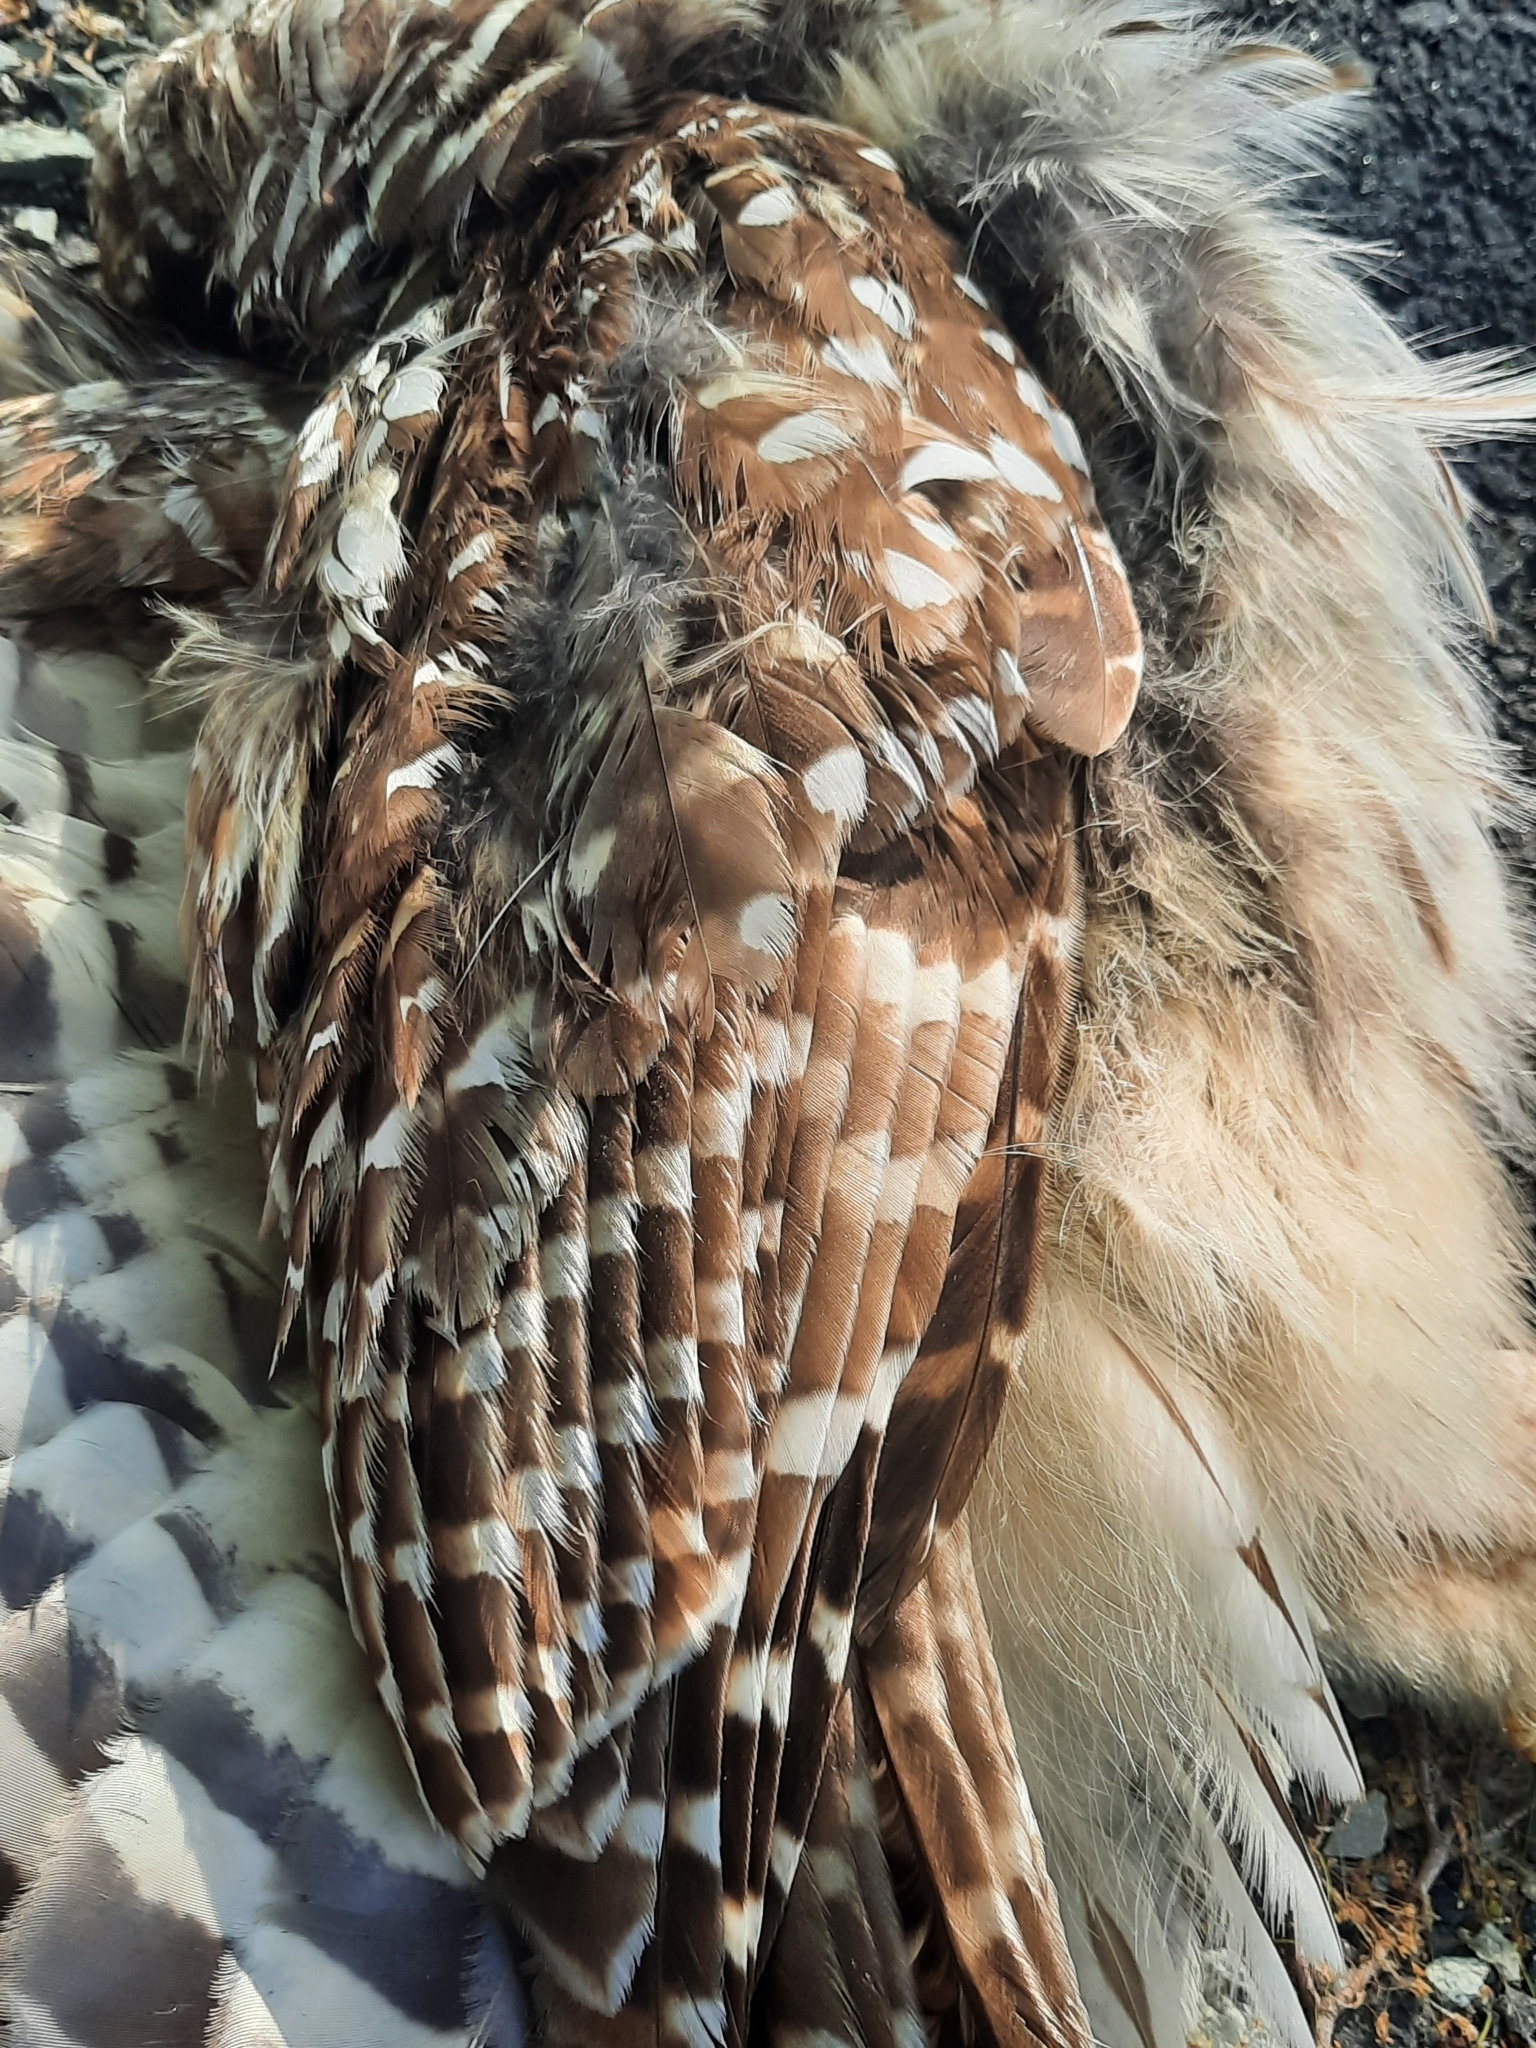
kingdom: Animalia
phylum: Chordata
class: Aves
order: Strigiformes
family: Strigidae
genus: Strix
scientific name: Strix varia
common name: Barred owl
